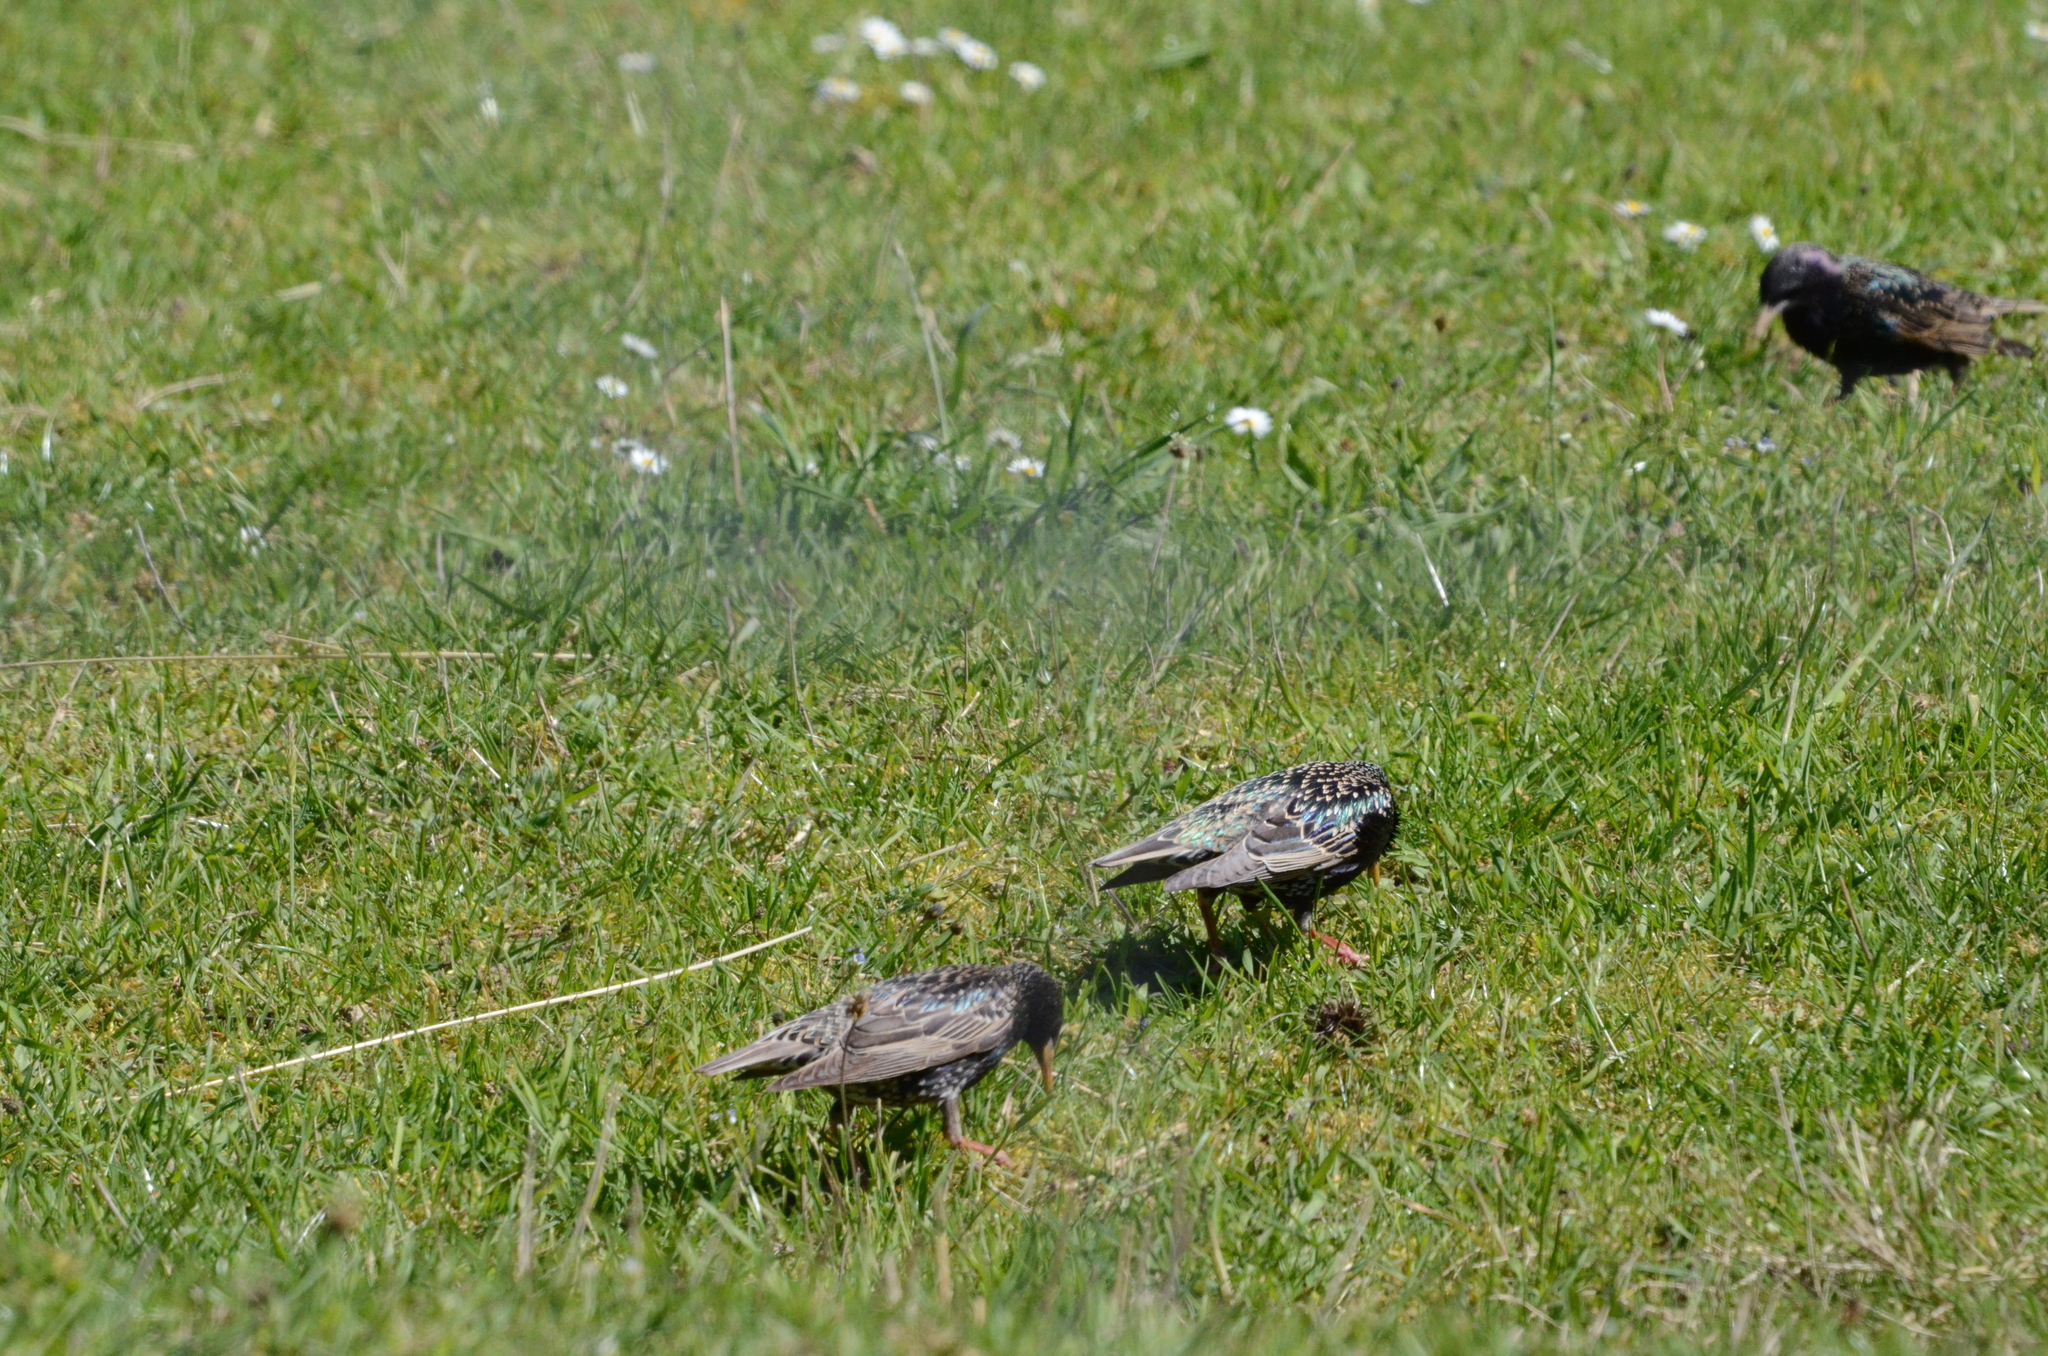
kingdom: Animalia
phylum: Chordata
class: Aves
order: Passeriformes
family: Sturnidae
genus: Sturnus
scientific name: Sturnus vulgaris
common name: Common starling
